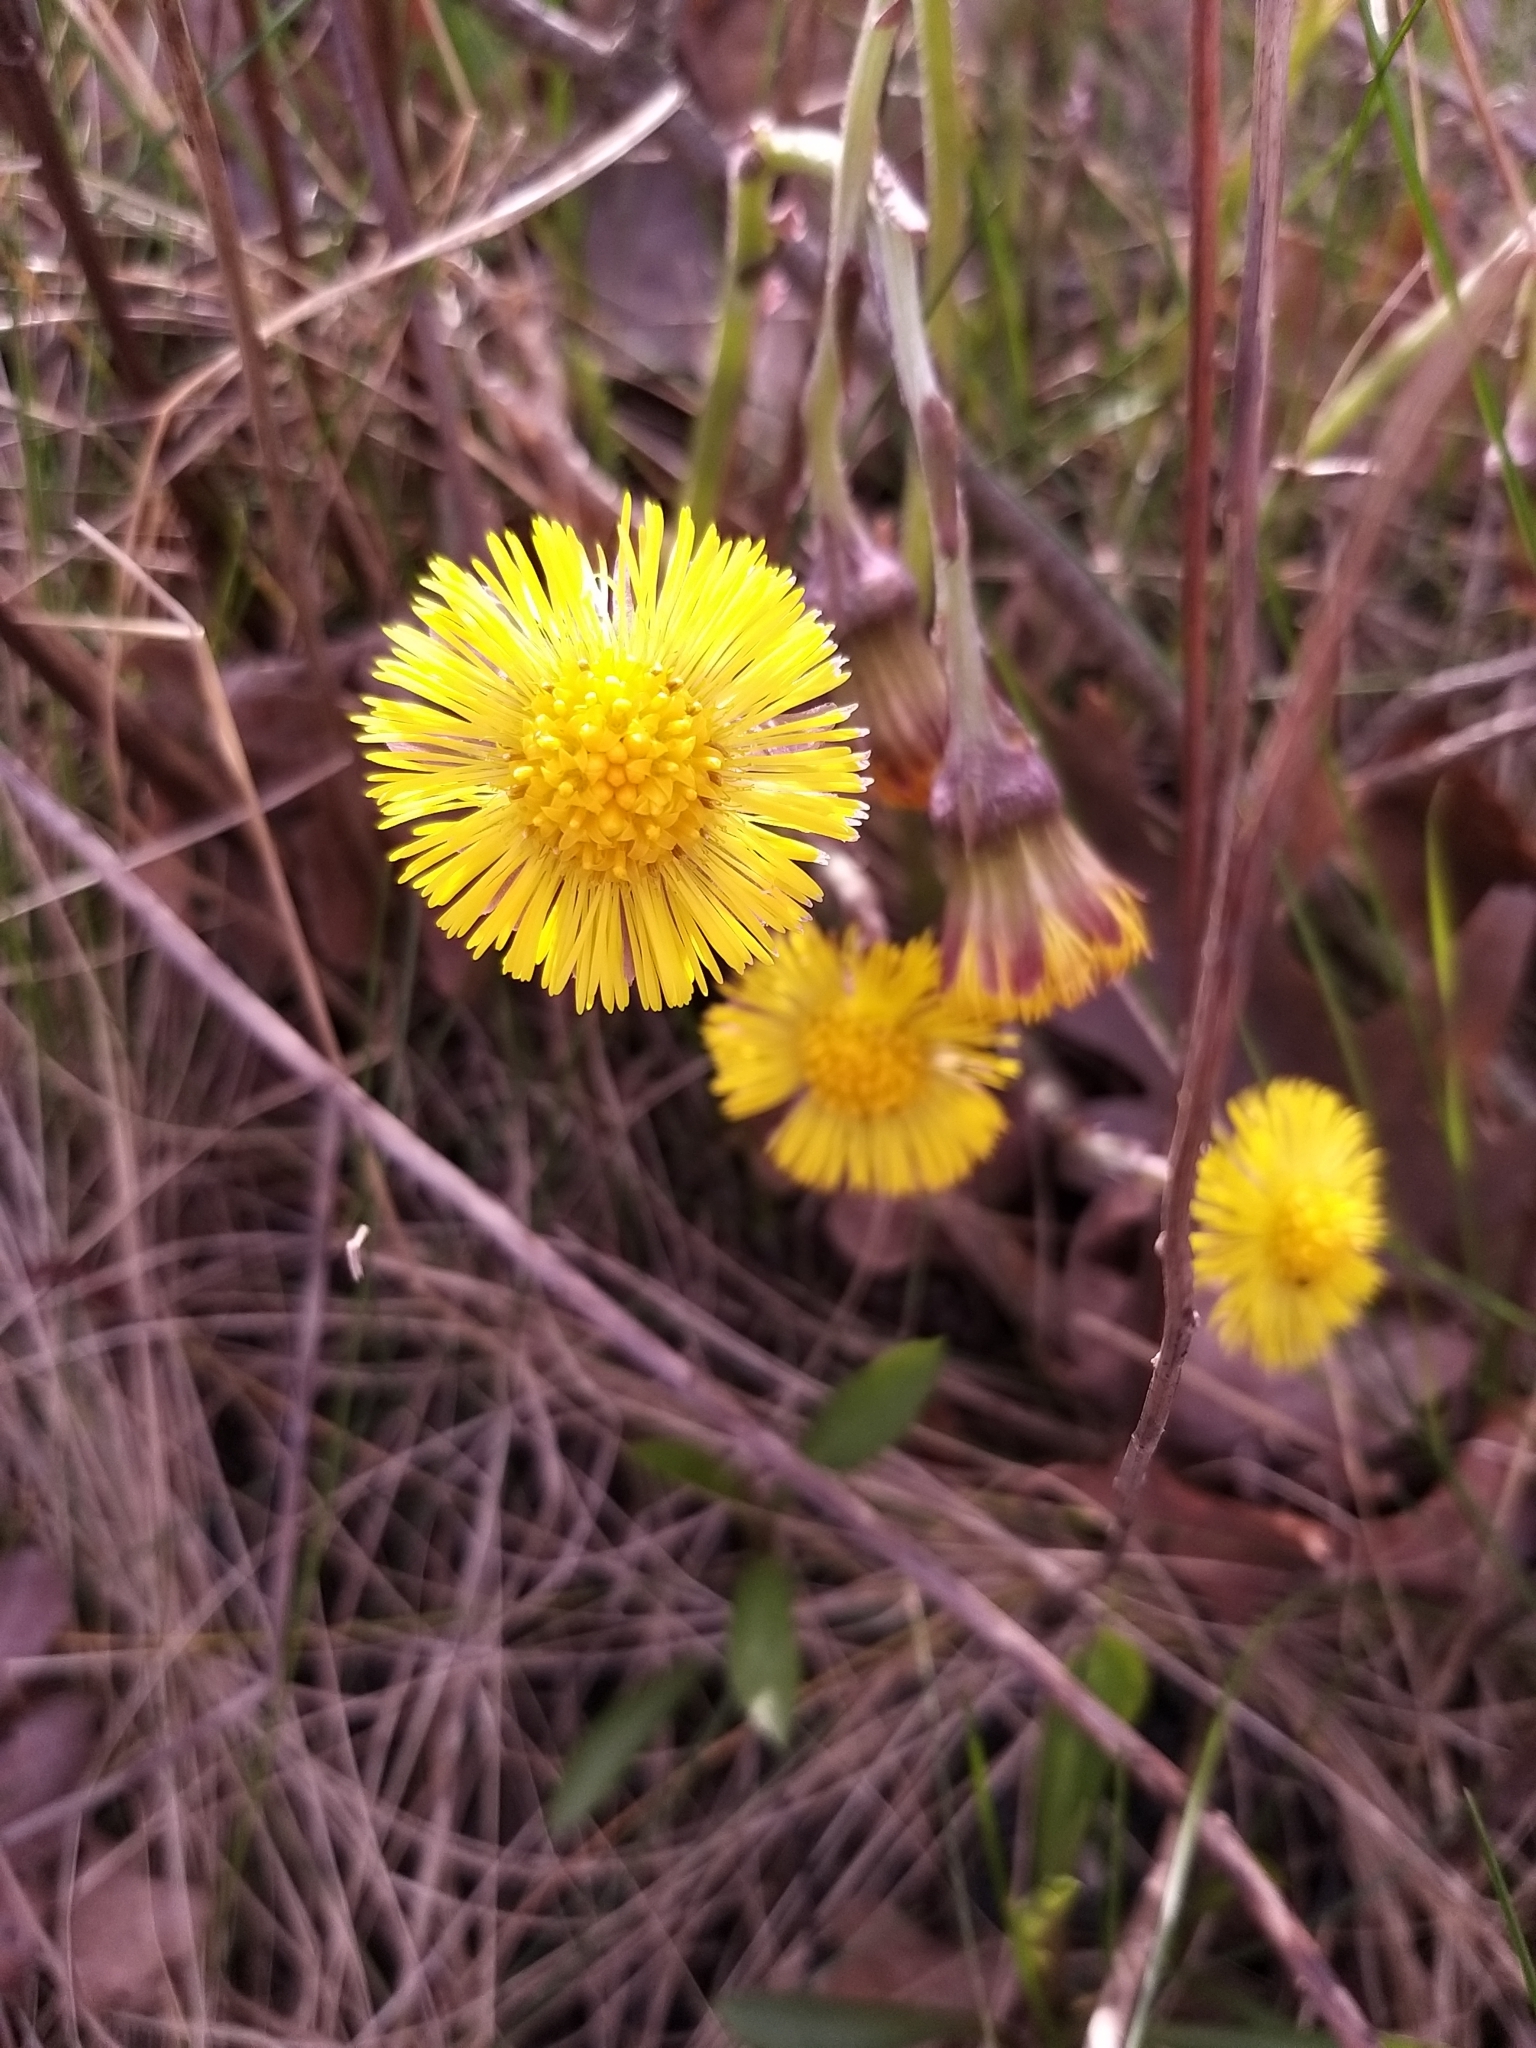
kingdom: Plantae
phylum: Tracheophyta
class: Magnoliopsida
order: Asterales
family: Asteraceae
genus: Tussilago
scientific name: Tussilago farfara
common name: Coltsfoot
